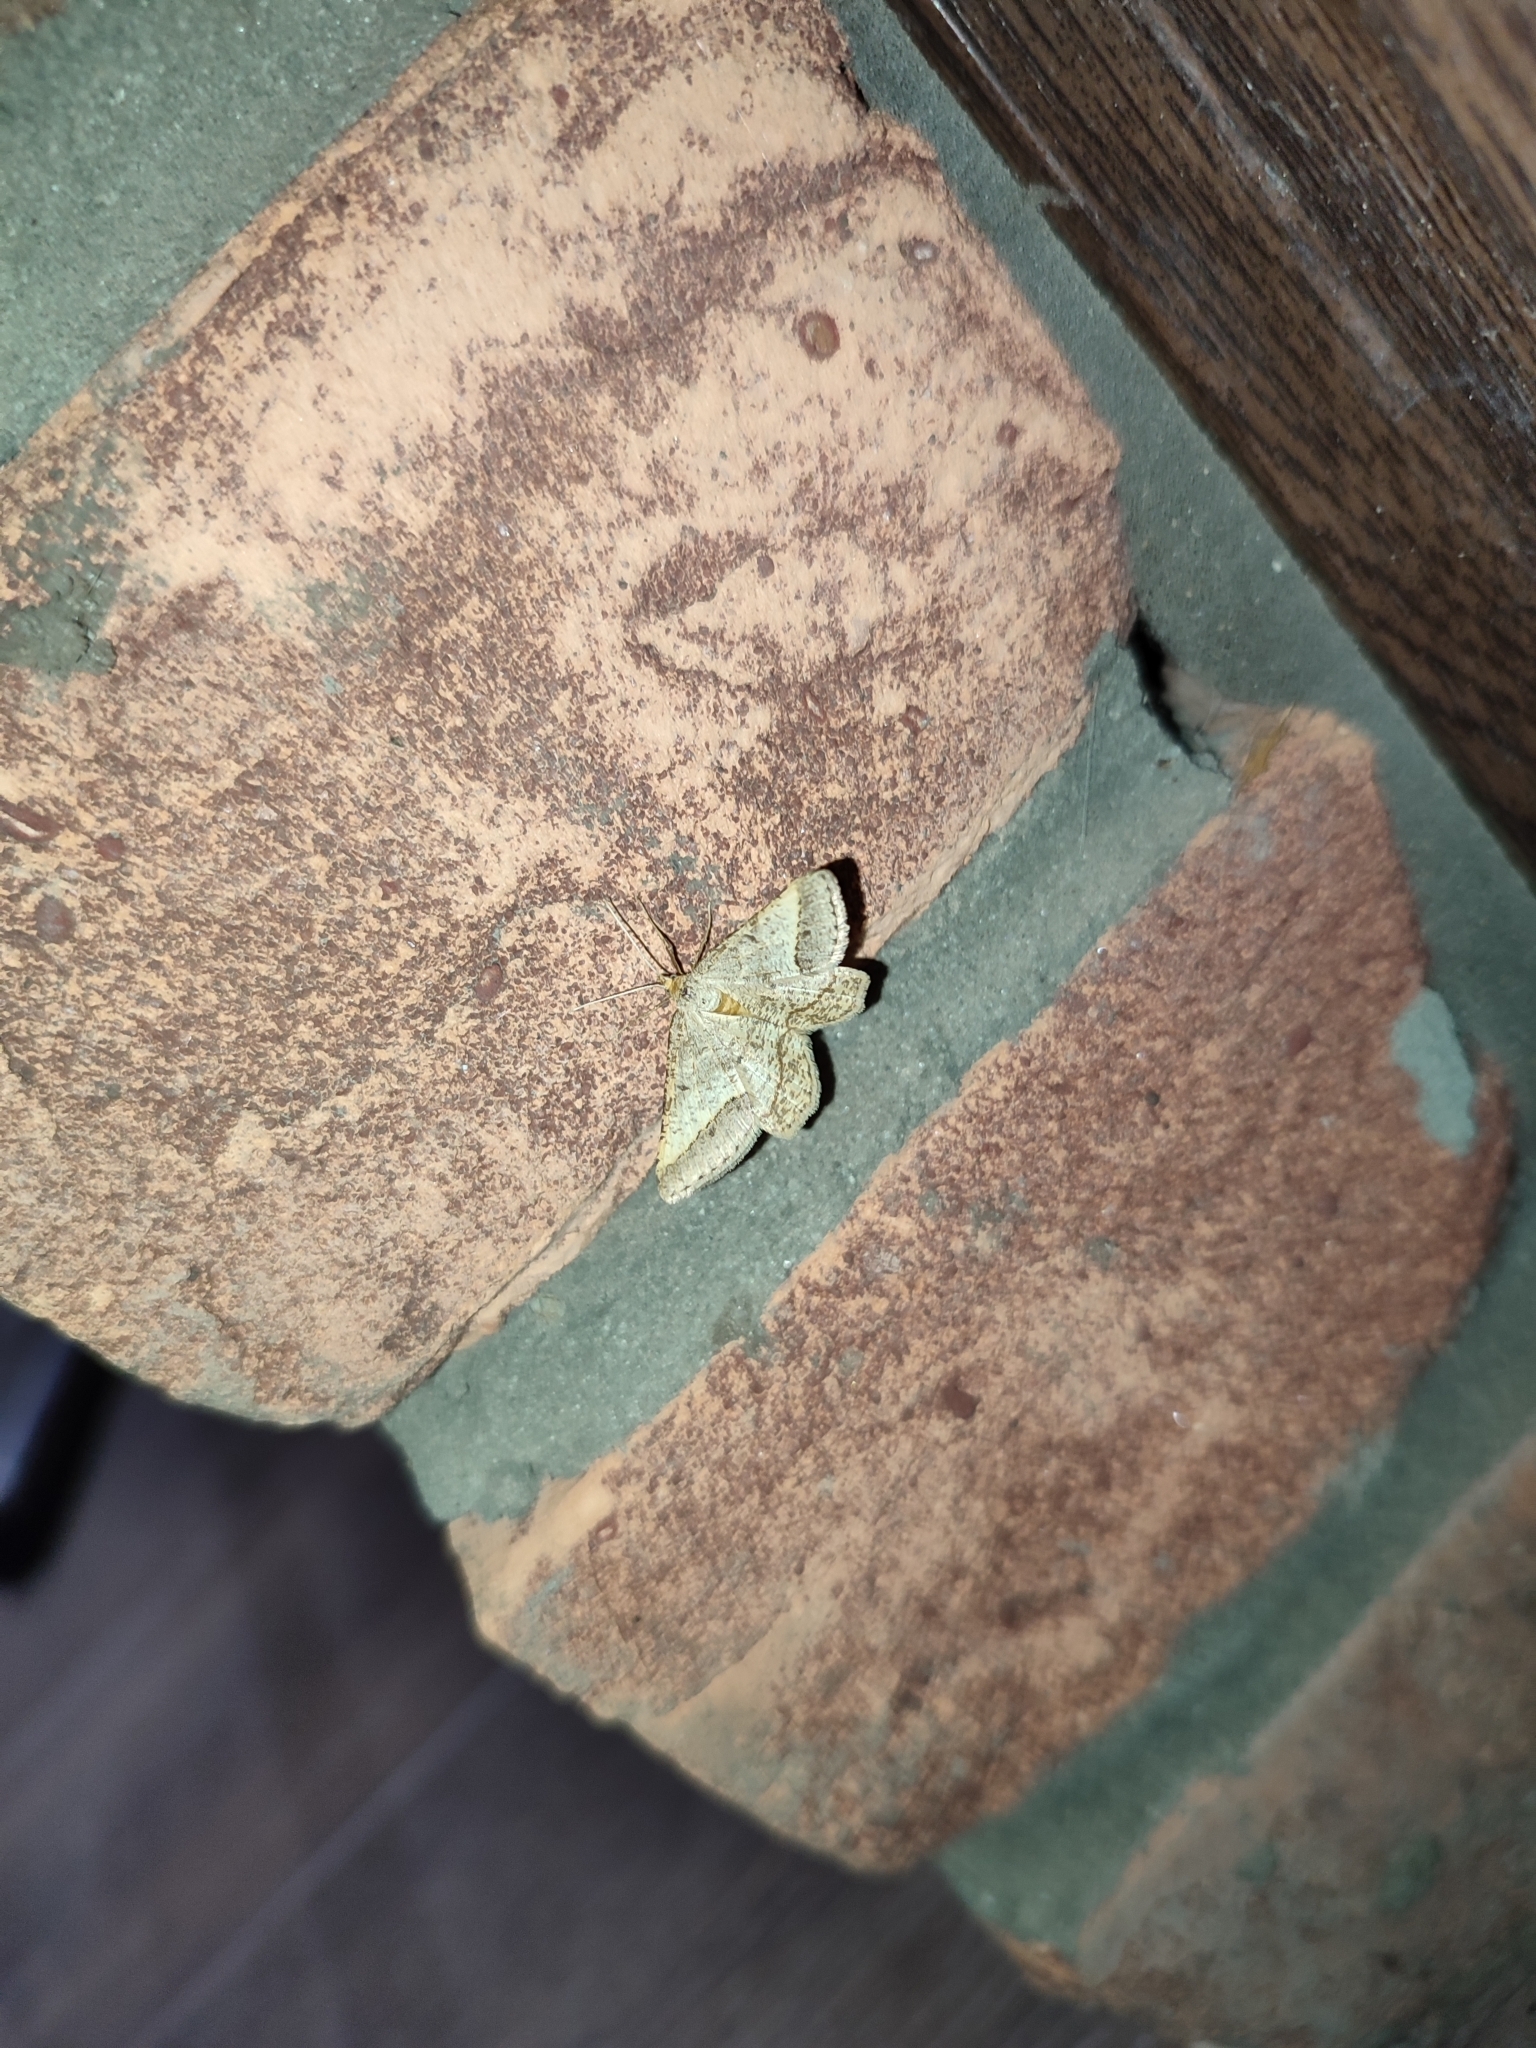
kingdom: Animalia
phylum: Arthropoda
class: Insecta
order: Lepidoptera
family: Geometridae
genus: Tephrina
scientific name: Tephrina arenacearia
